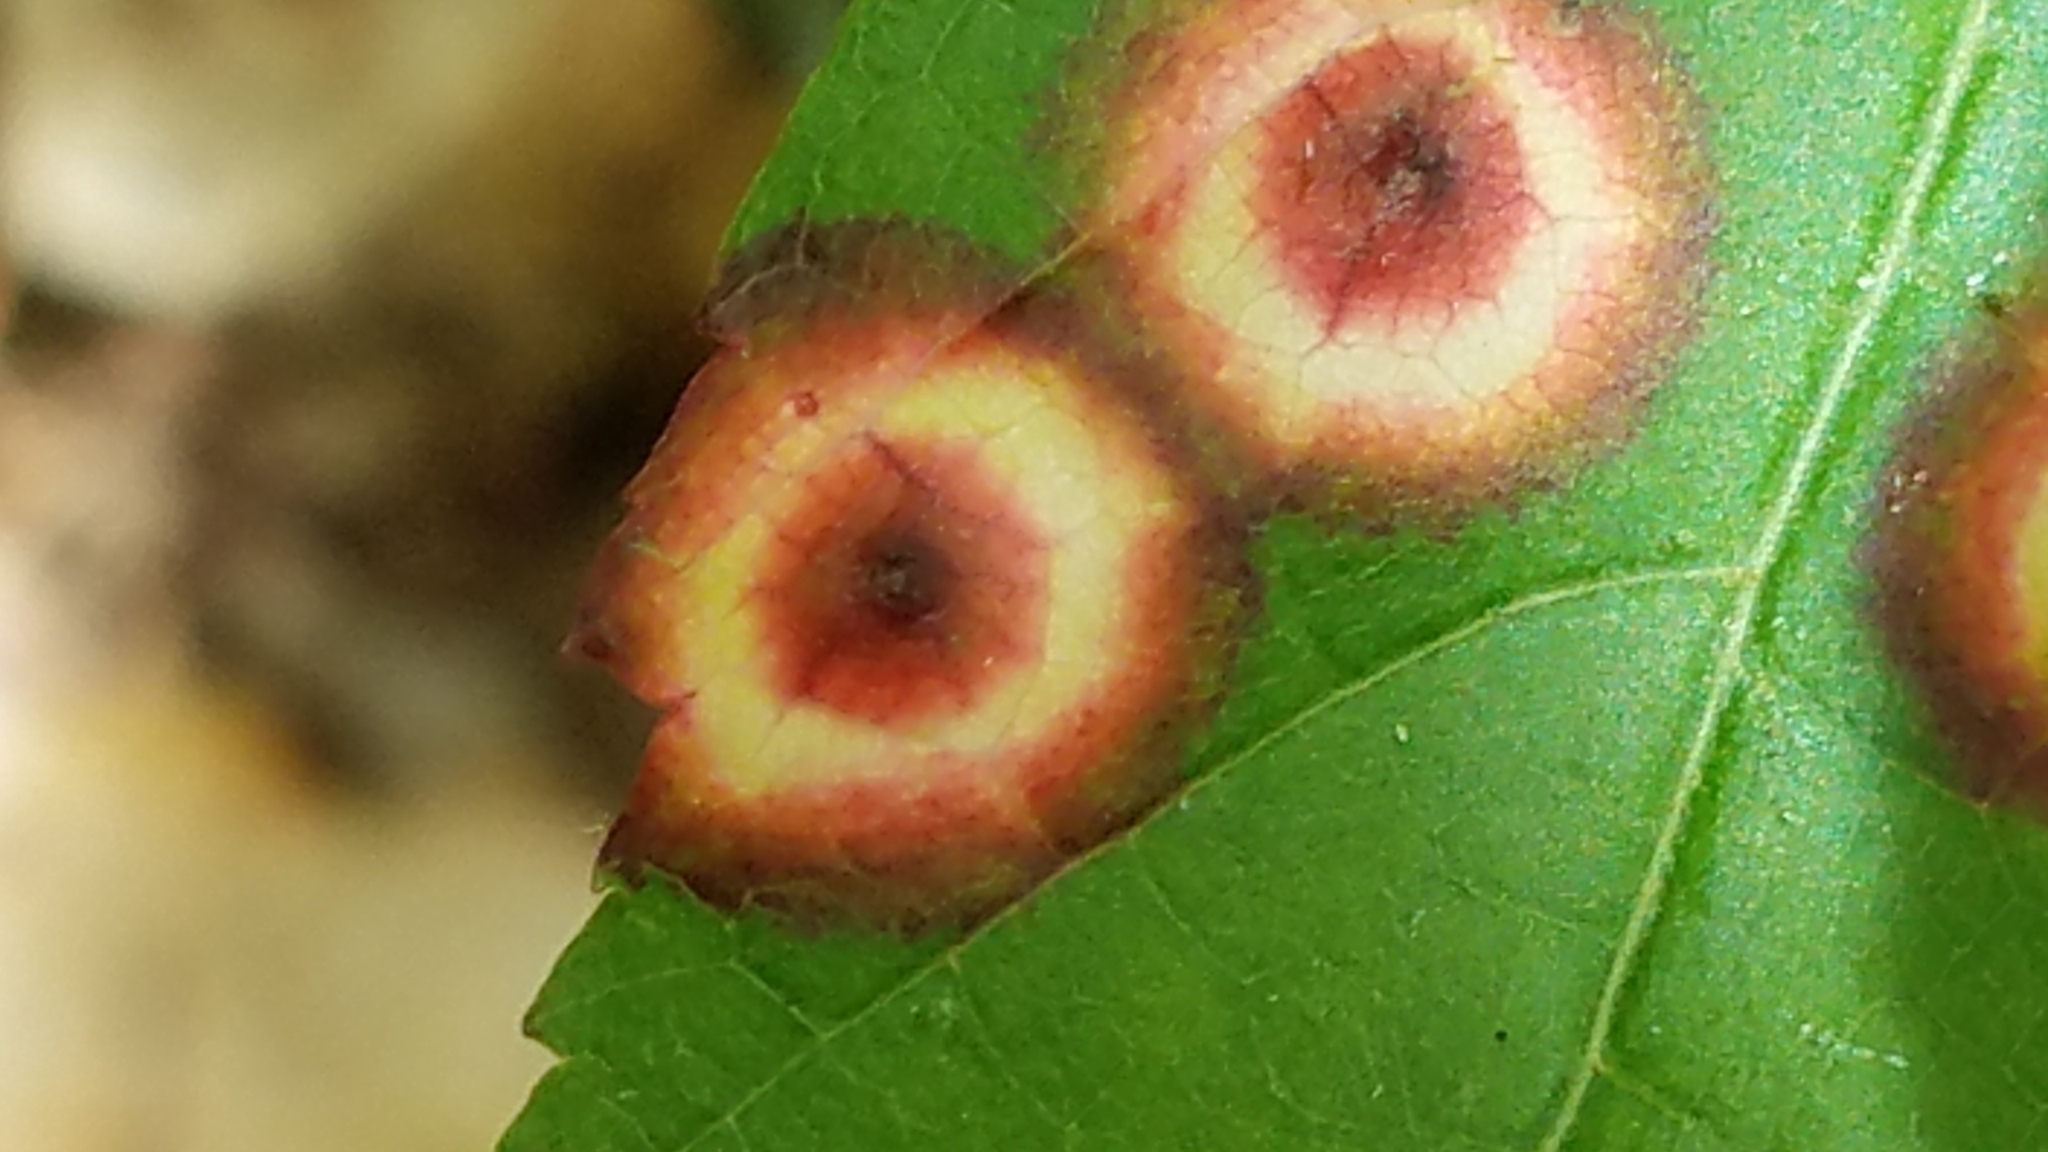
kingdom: Animalia
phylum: Arthropoda
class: Insecta
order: Diptera
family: Cecidomyiidae
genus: Acericecis
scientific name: Acericecis ocellaris
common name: Ocellate gall midge
